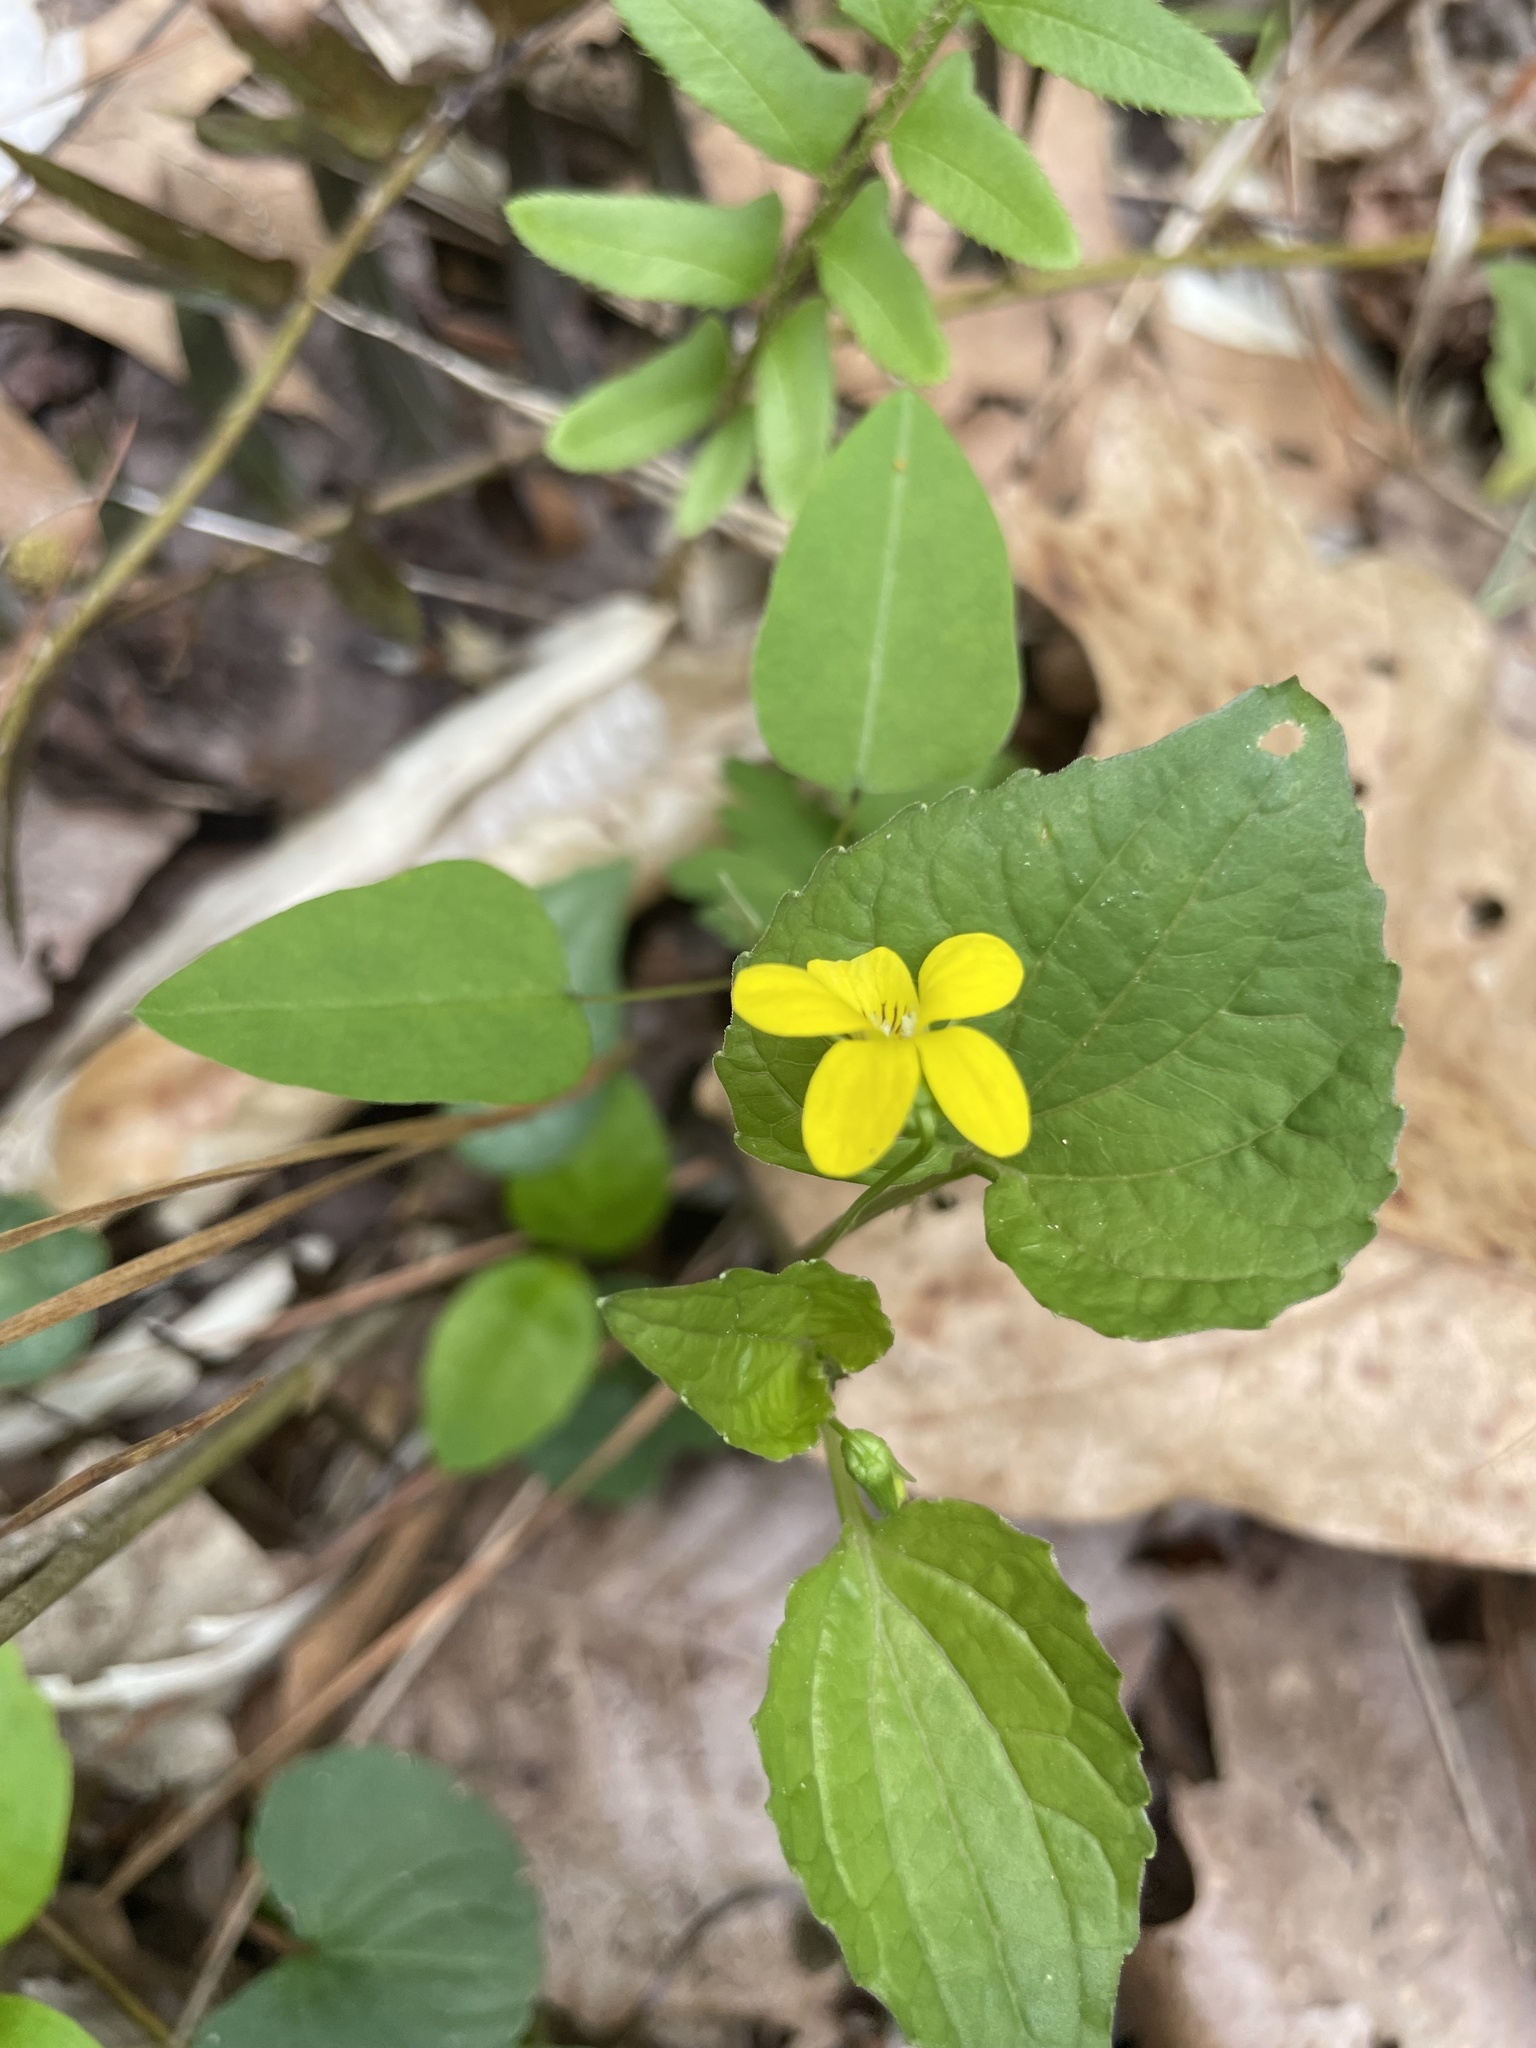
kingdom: Plantae
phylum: Tracheophyta
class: Magnoliopsida
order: Malpighiales
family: Violaceae
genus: Viola
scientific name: Viola eriocarpa
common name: Smooth yellow violet
